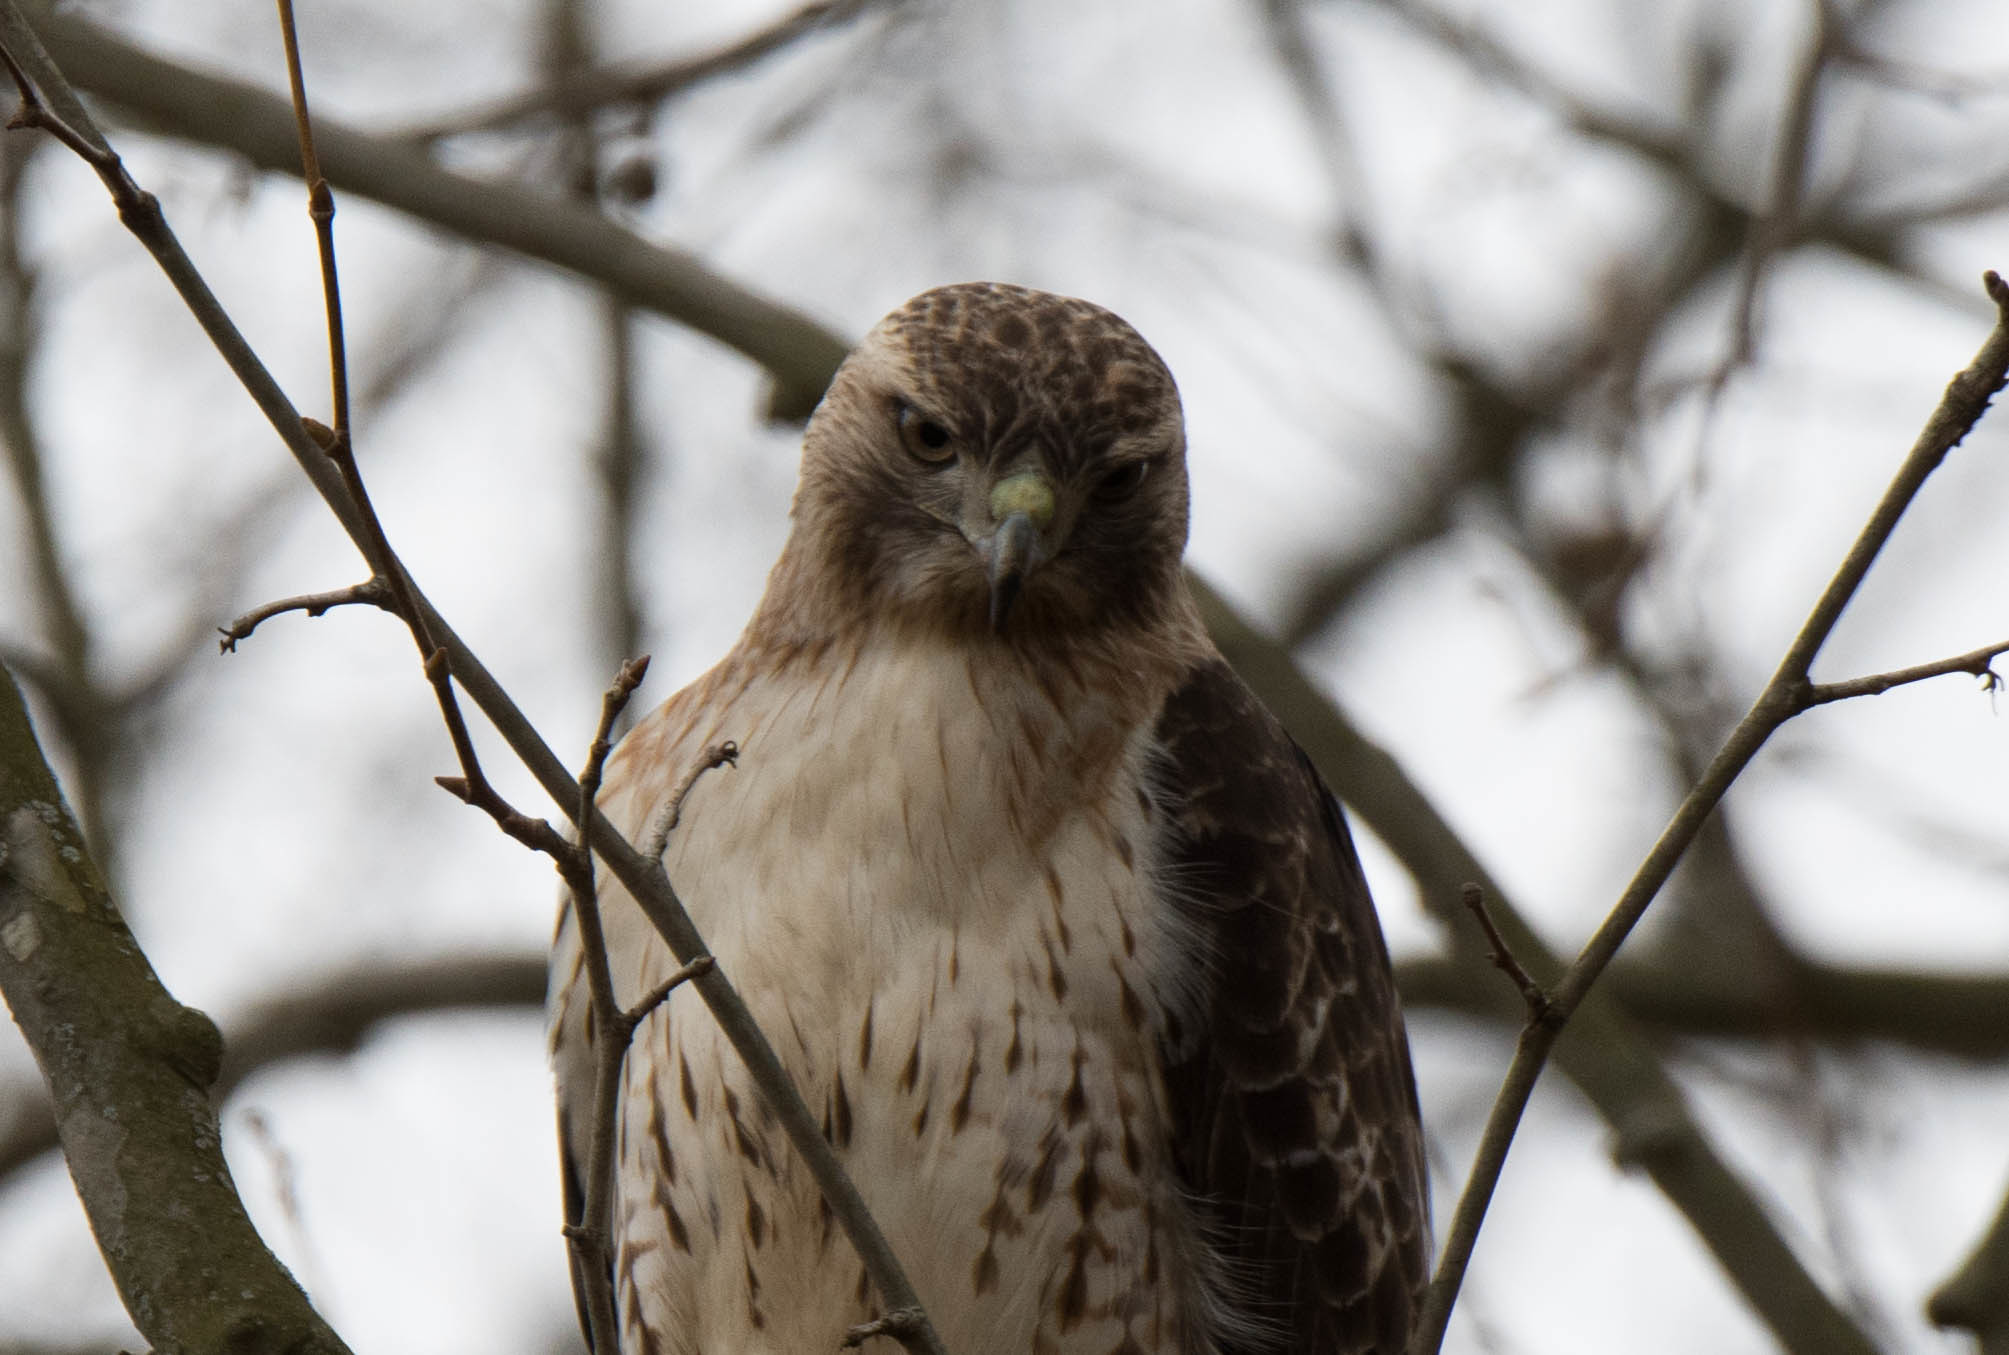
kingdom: Animalia
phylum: Chordata
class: Aves
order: Accipitriformes
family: Accipitridae
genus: Buteo
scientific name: Buteo jamaicensis
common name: Red-tailed hawk
